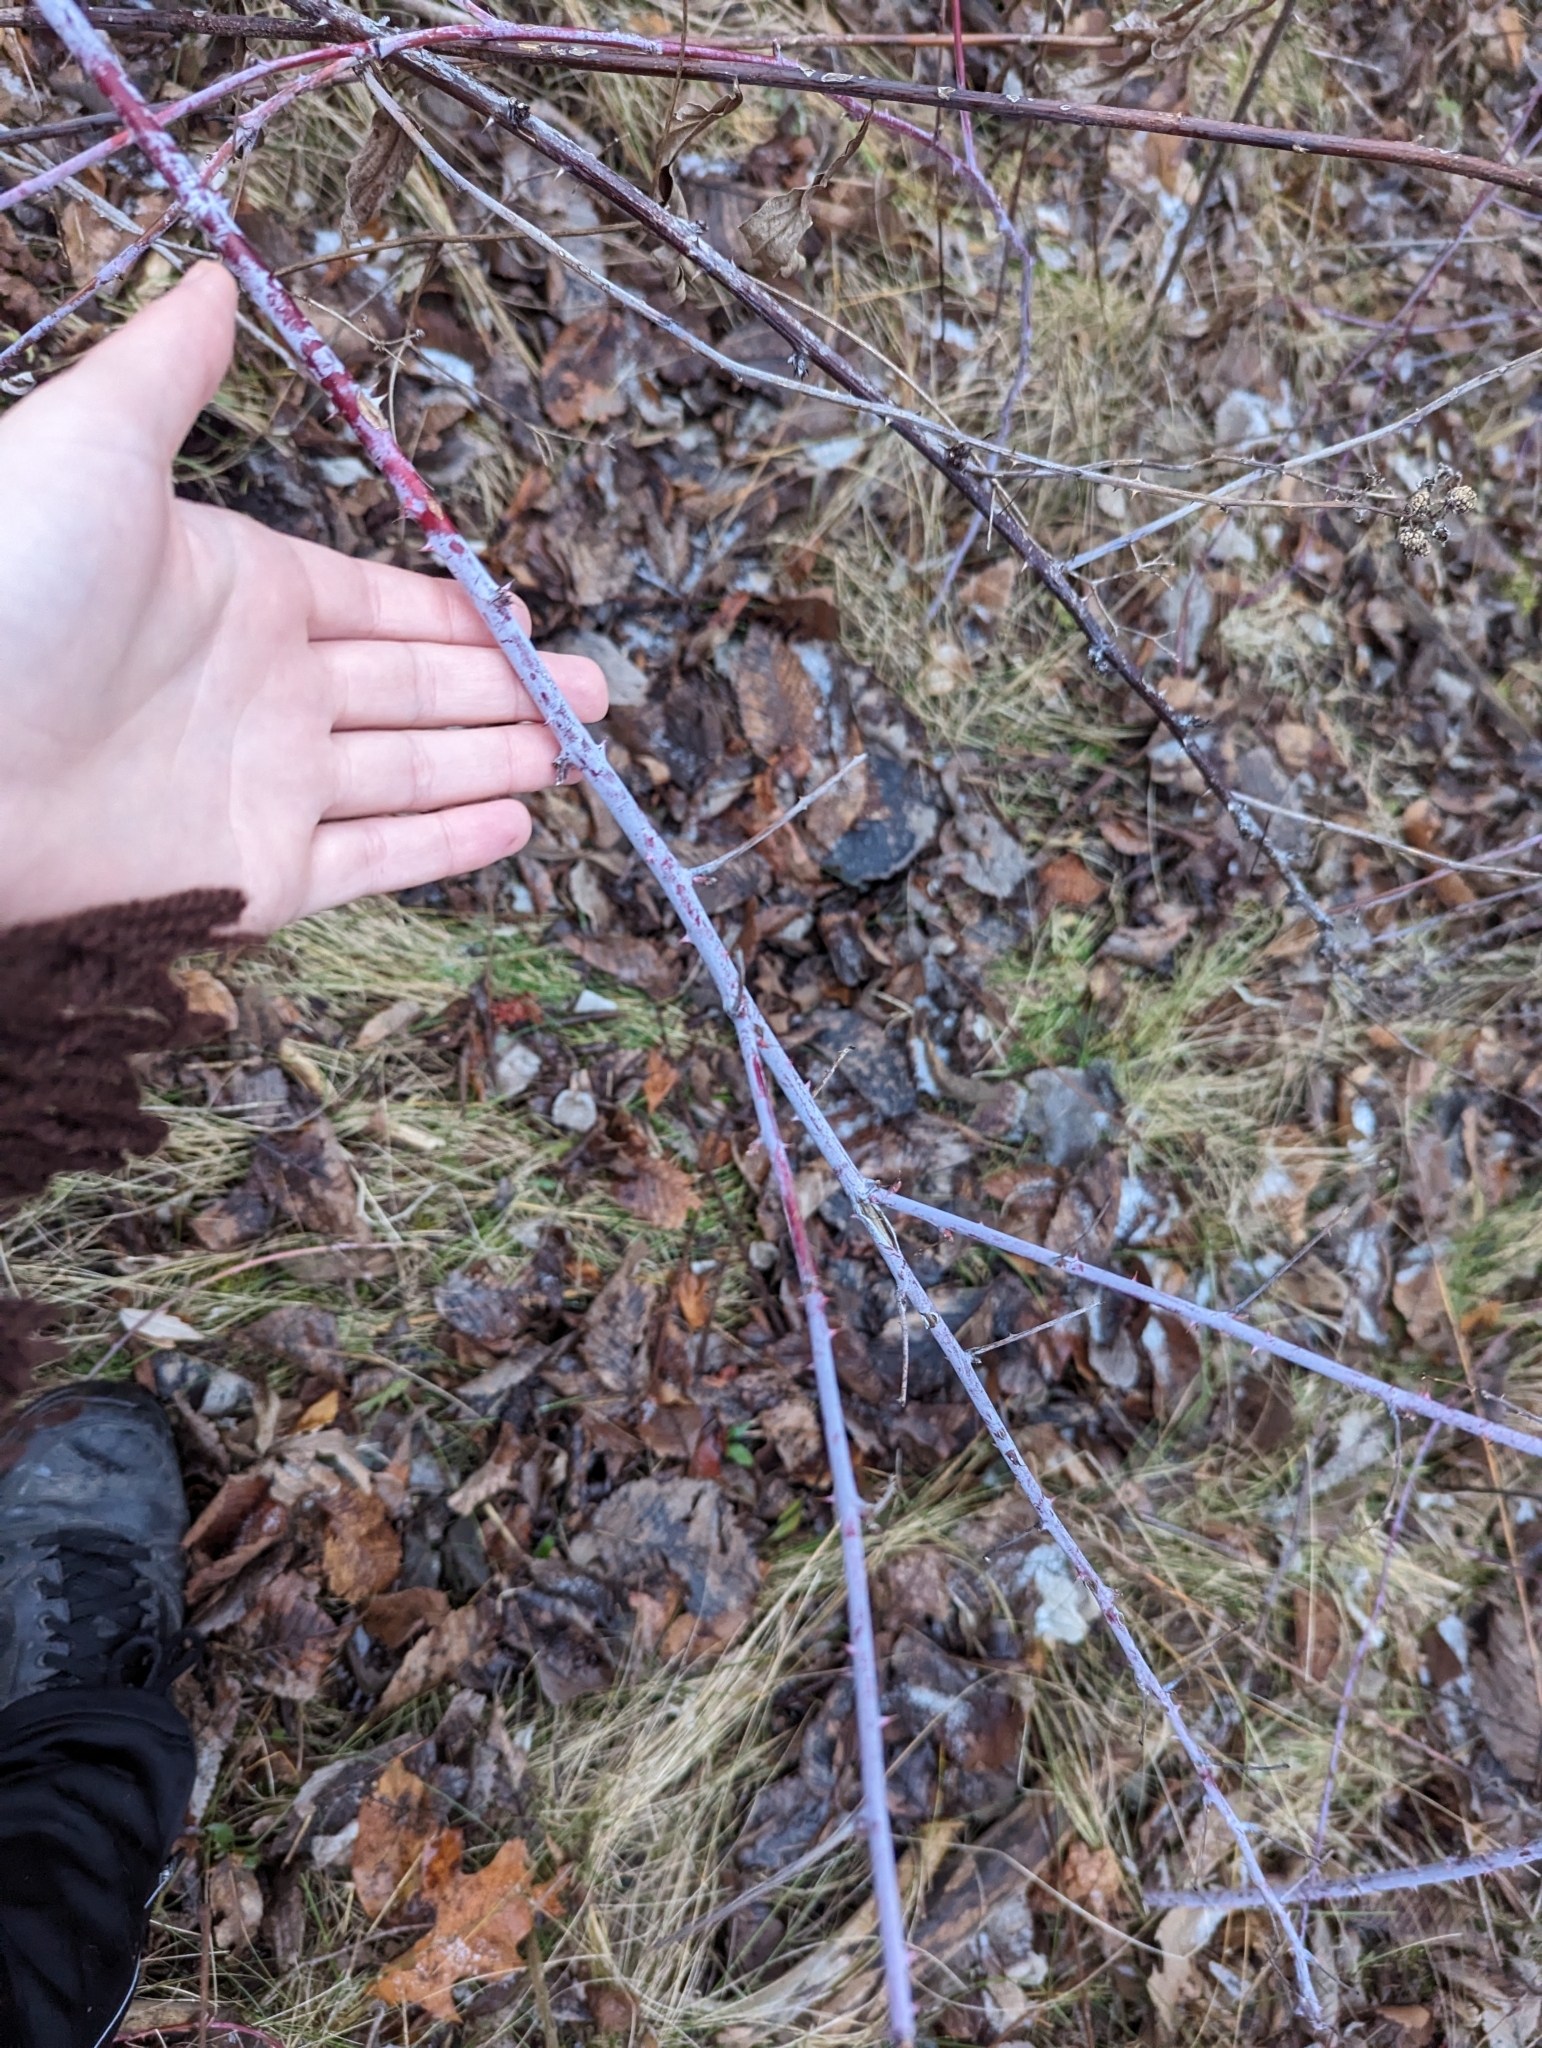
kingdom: Plantae
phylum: Tracheophyta
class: Magnoliopsida
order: Rosales
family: Rosaceae
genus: Rubus
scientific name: Rubus occidentalis
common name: Black raspberry
